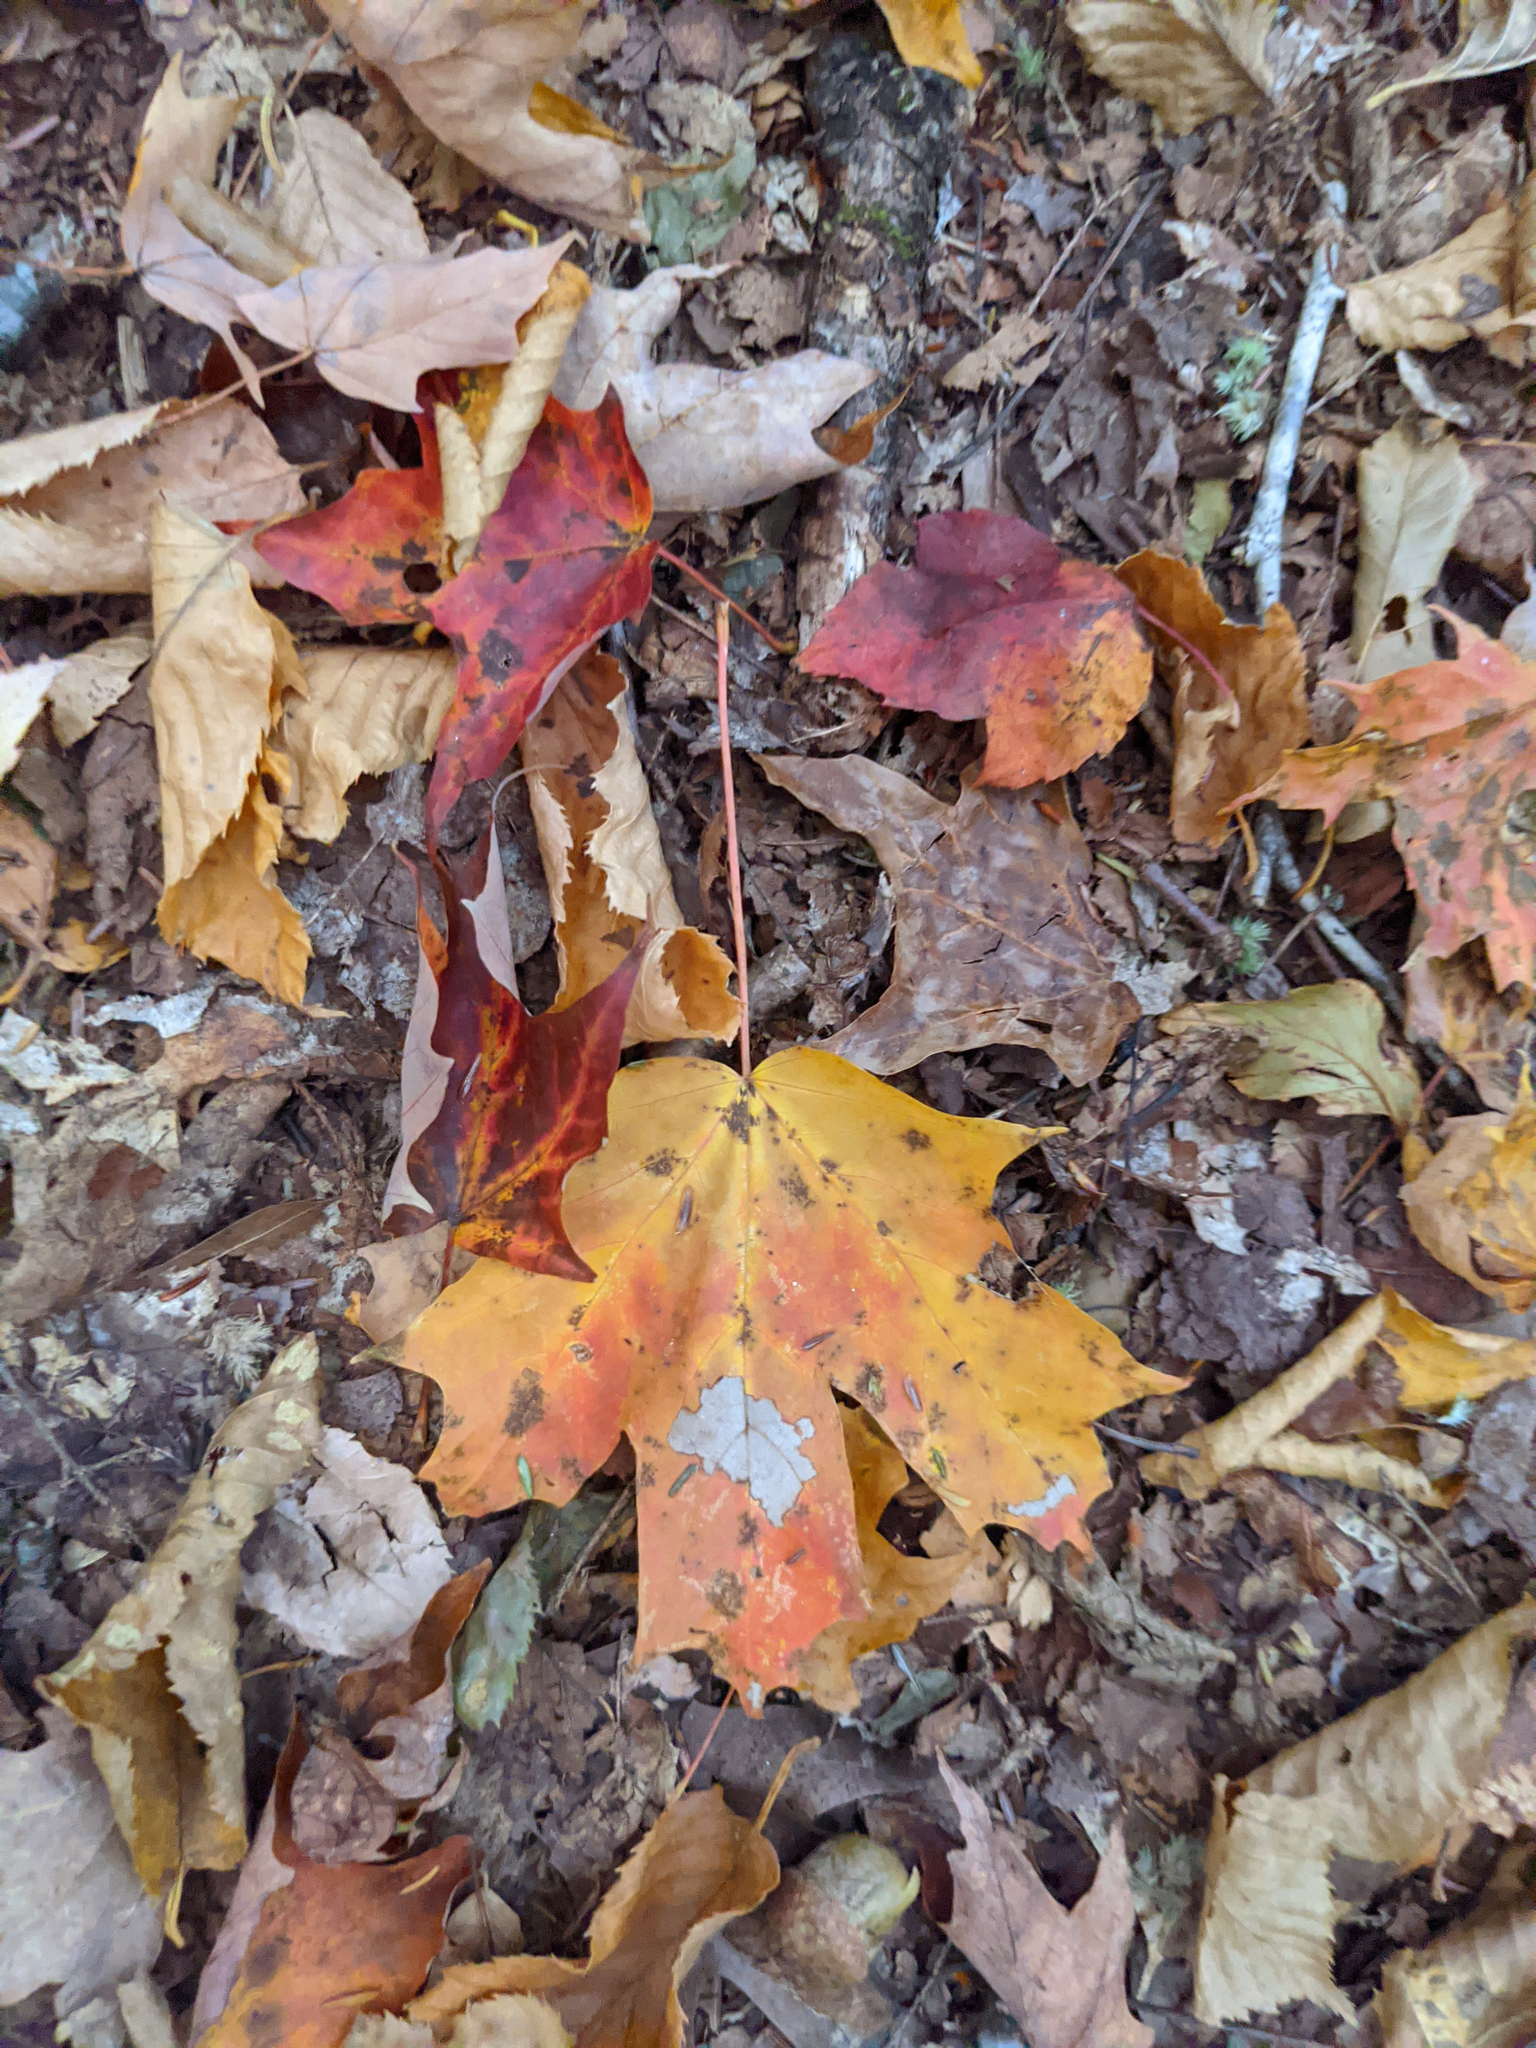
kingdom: Plantae
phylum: Tracheophyta
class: Magnoliopsida
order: Sapindales
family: Sapindaceae
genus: Acer
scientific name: Acer saccharum
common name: Sugar maple
